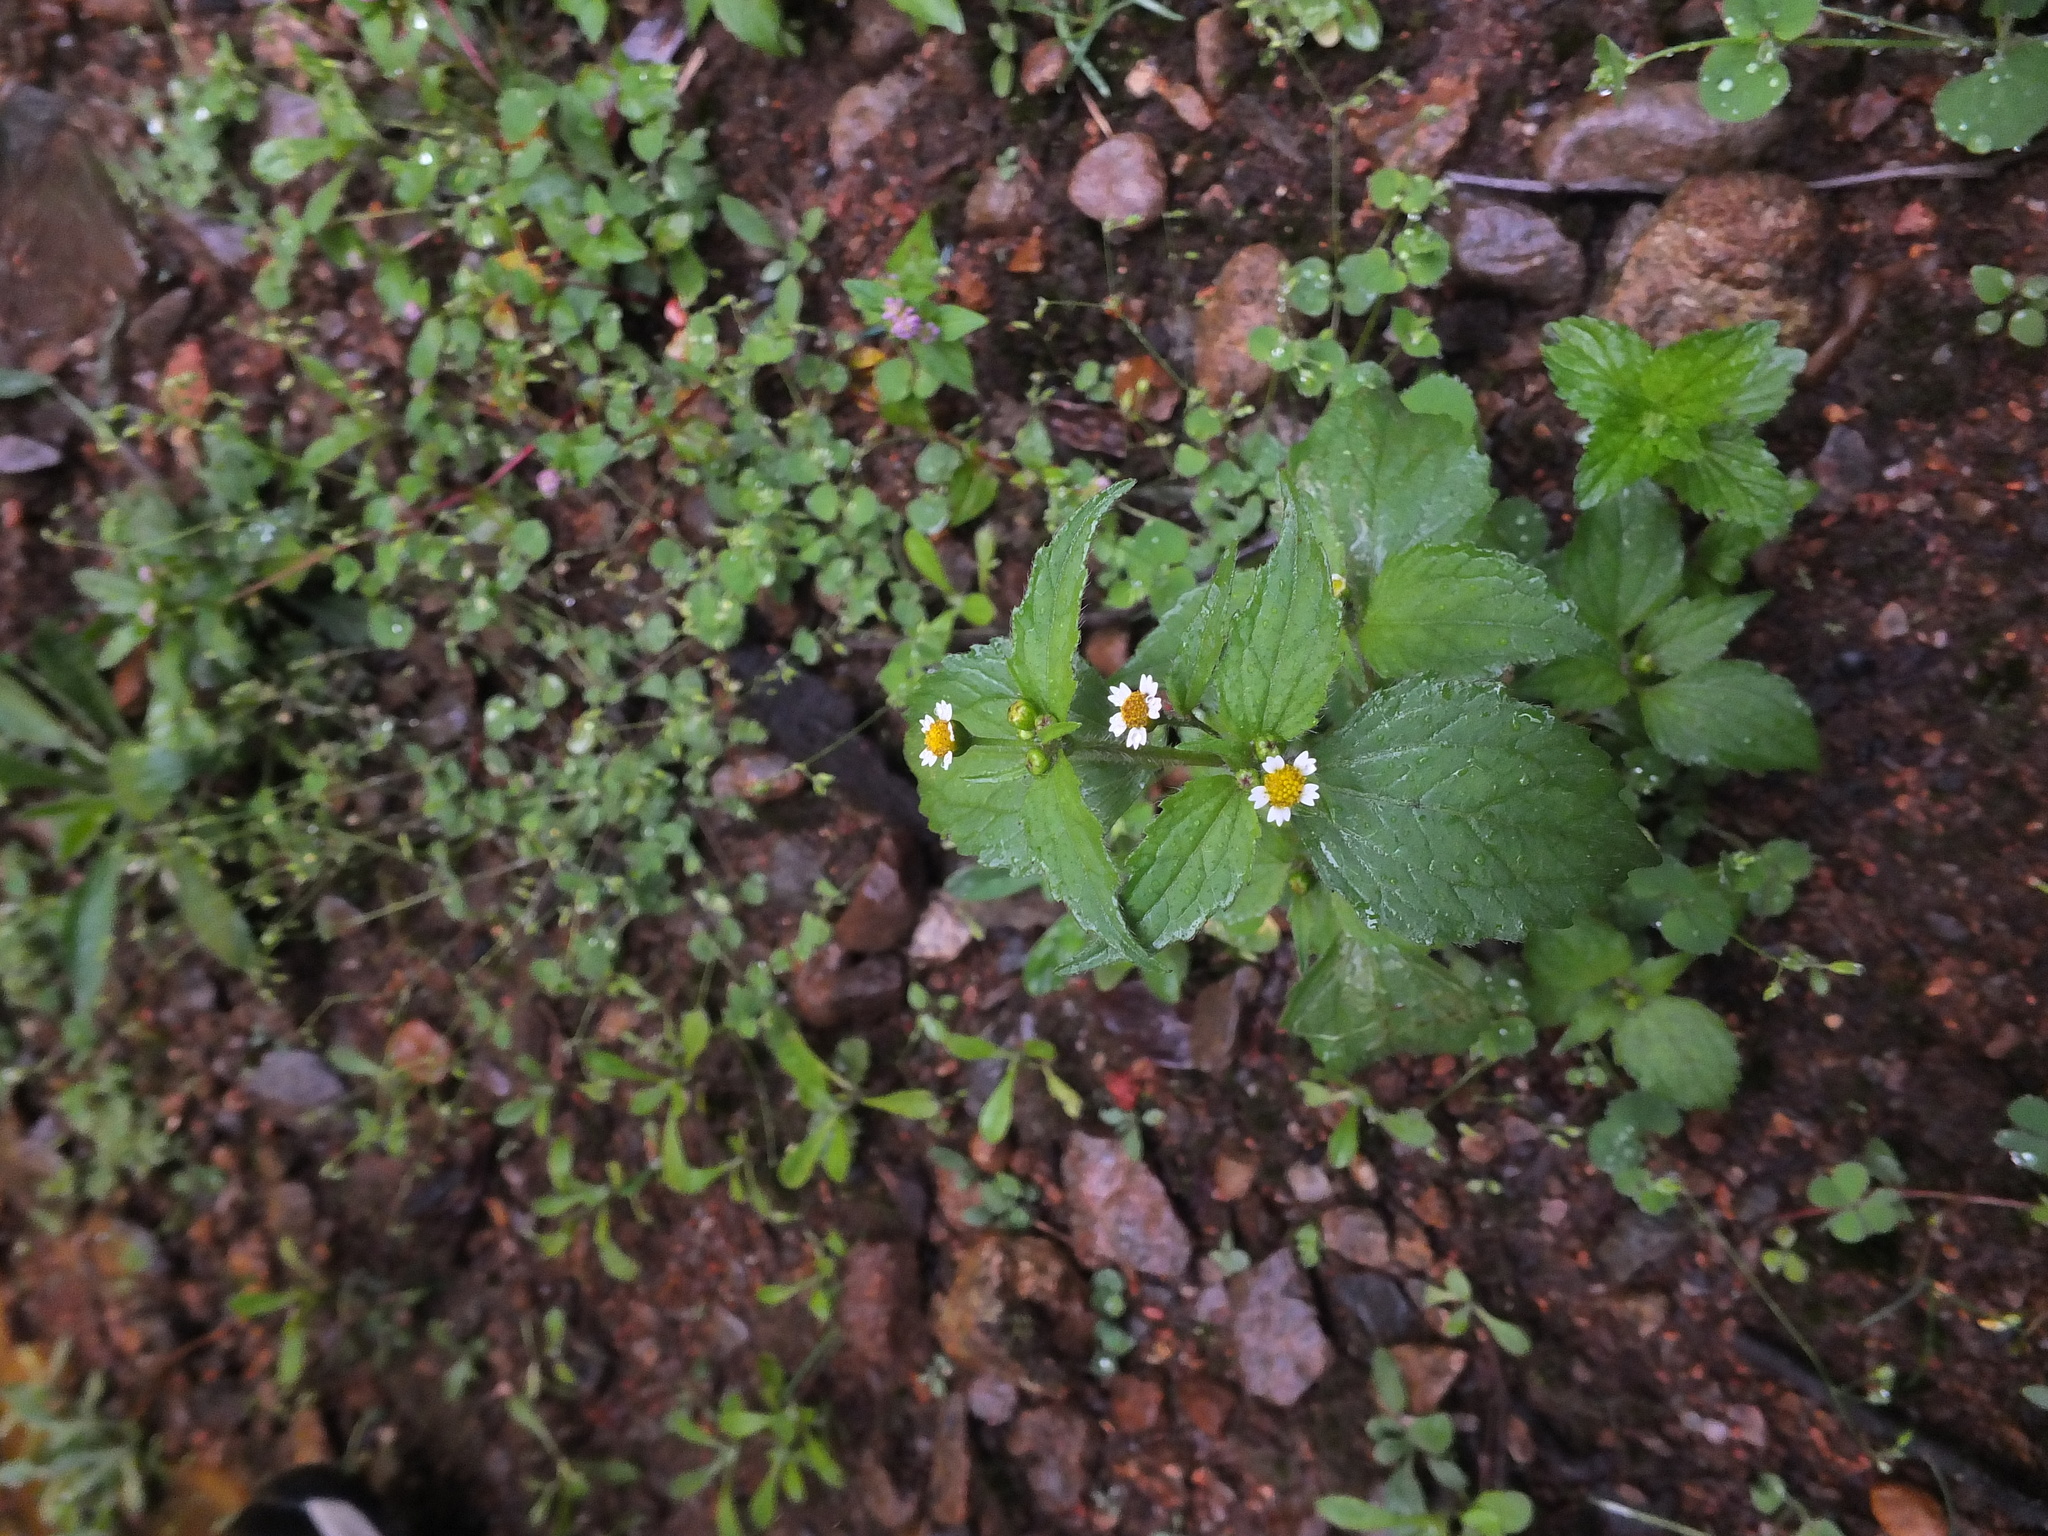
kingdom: Plantae
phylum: Tracheophyta
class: Magnoliopsida
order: Asterales
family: Asteraceae
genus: Galinsoga
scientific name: Galinsoga parviflora
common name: Gallant soldier
